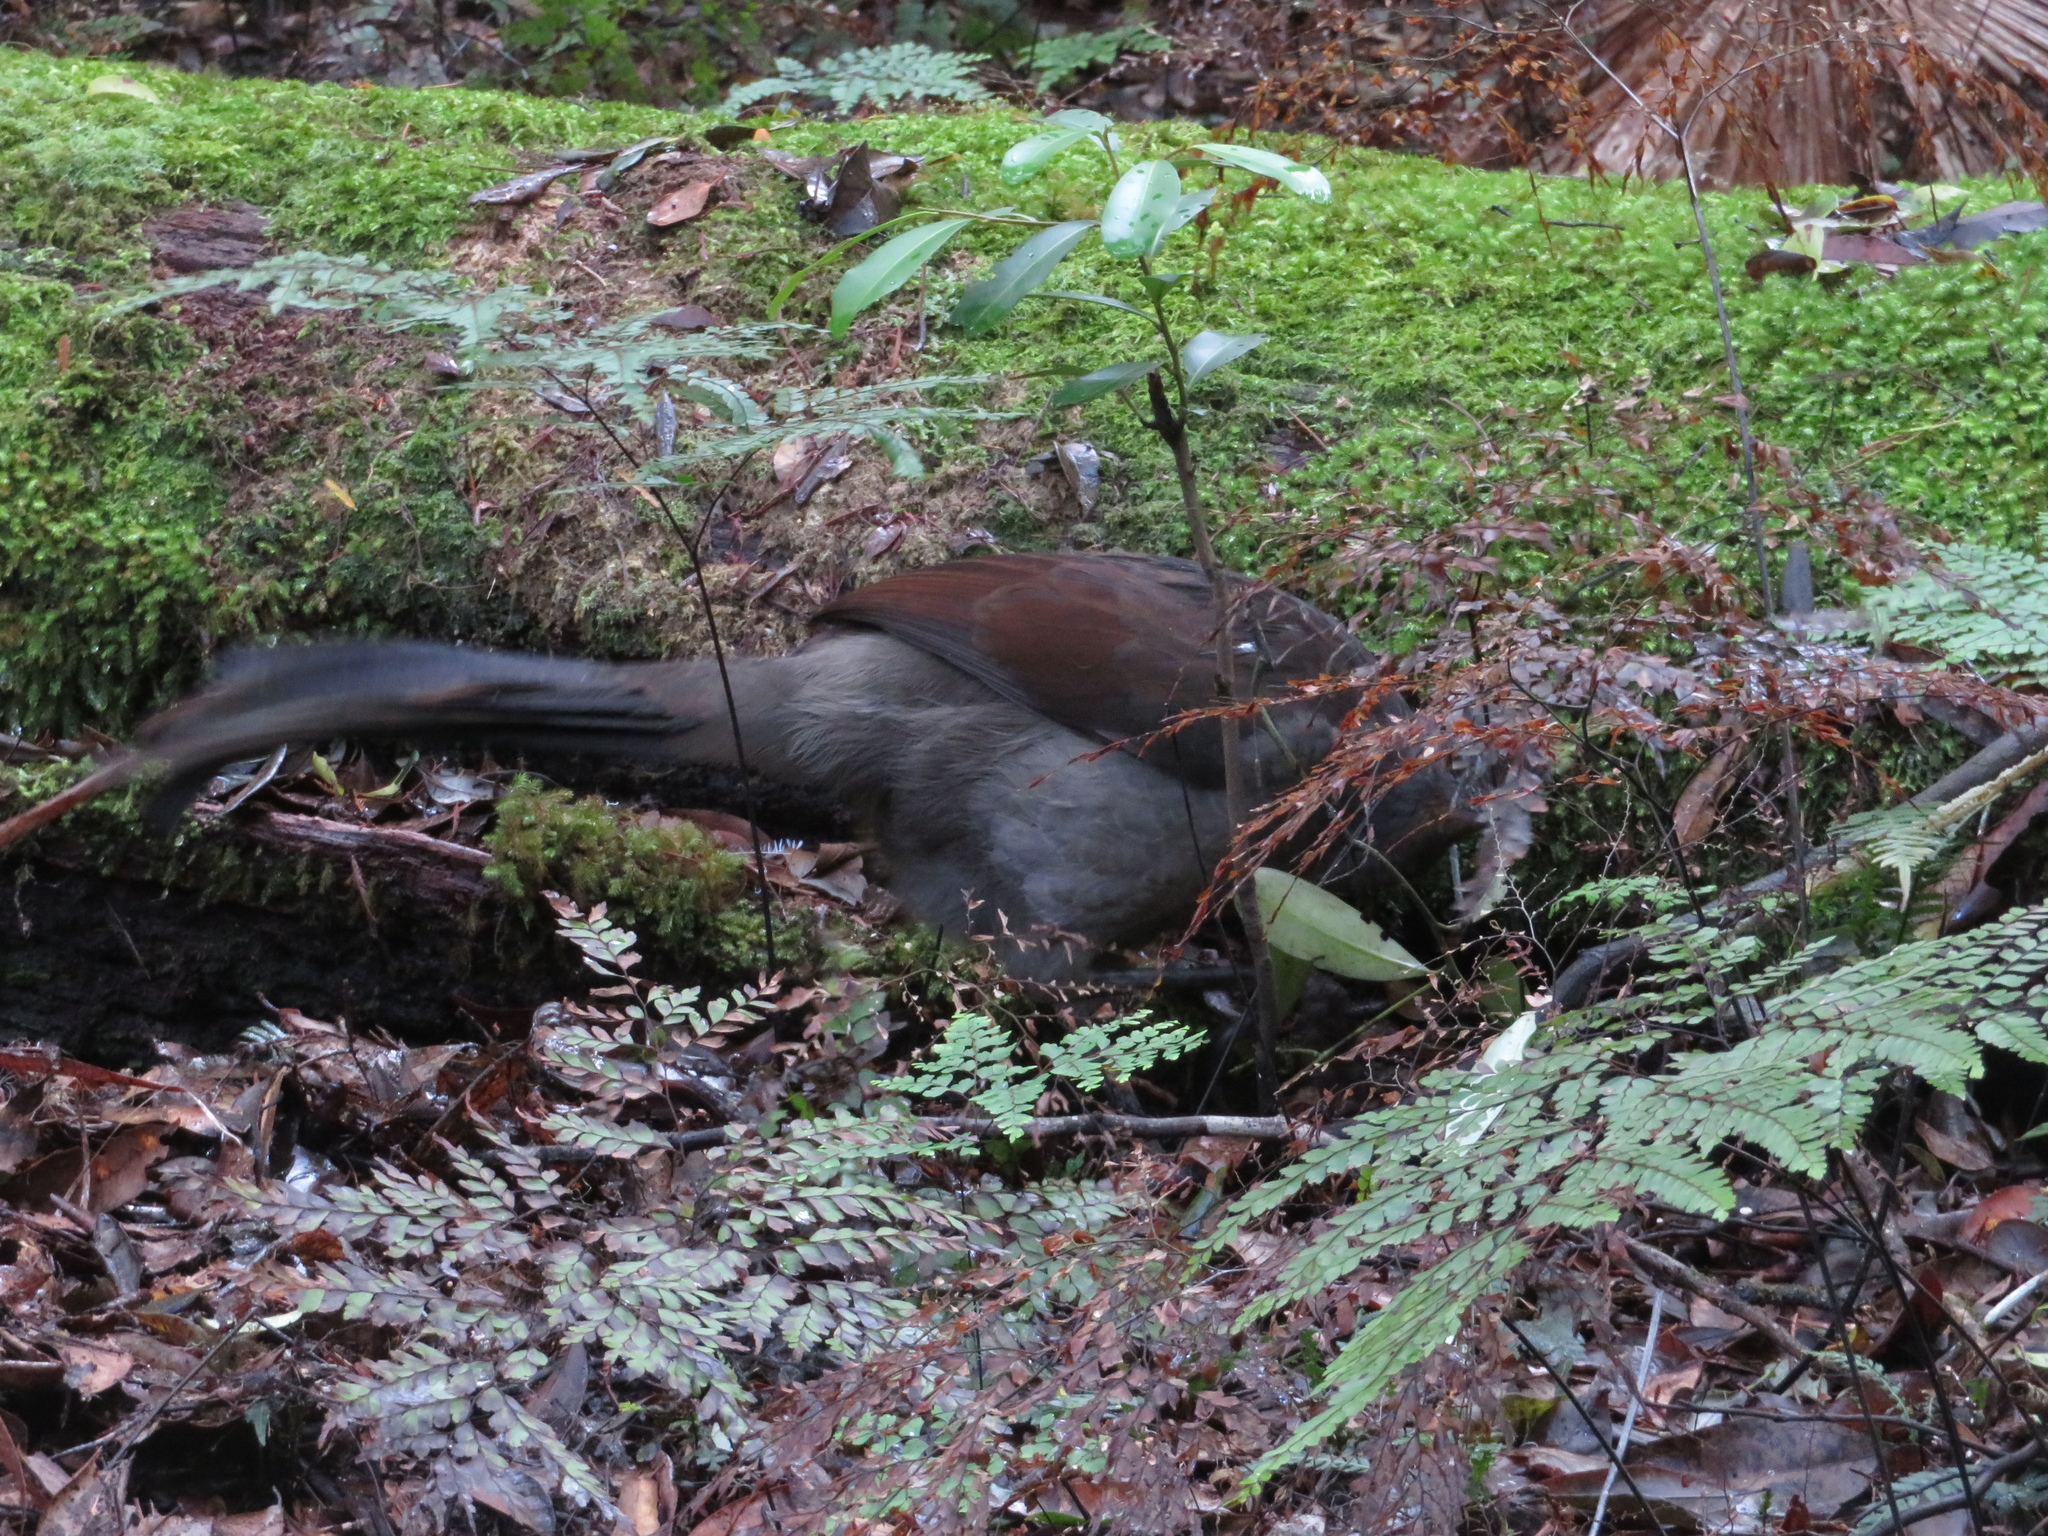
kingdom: Animalia
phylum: Chordata
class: Aves
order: Passeriformes
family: Menuridae
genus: Menura
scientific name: Menura novaehollandiae
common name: Superb lyrebird
